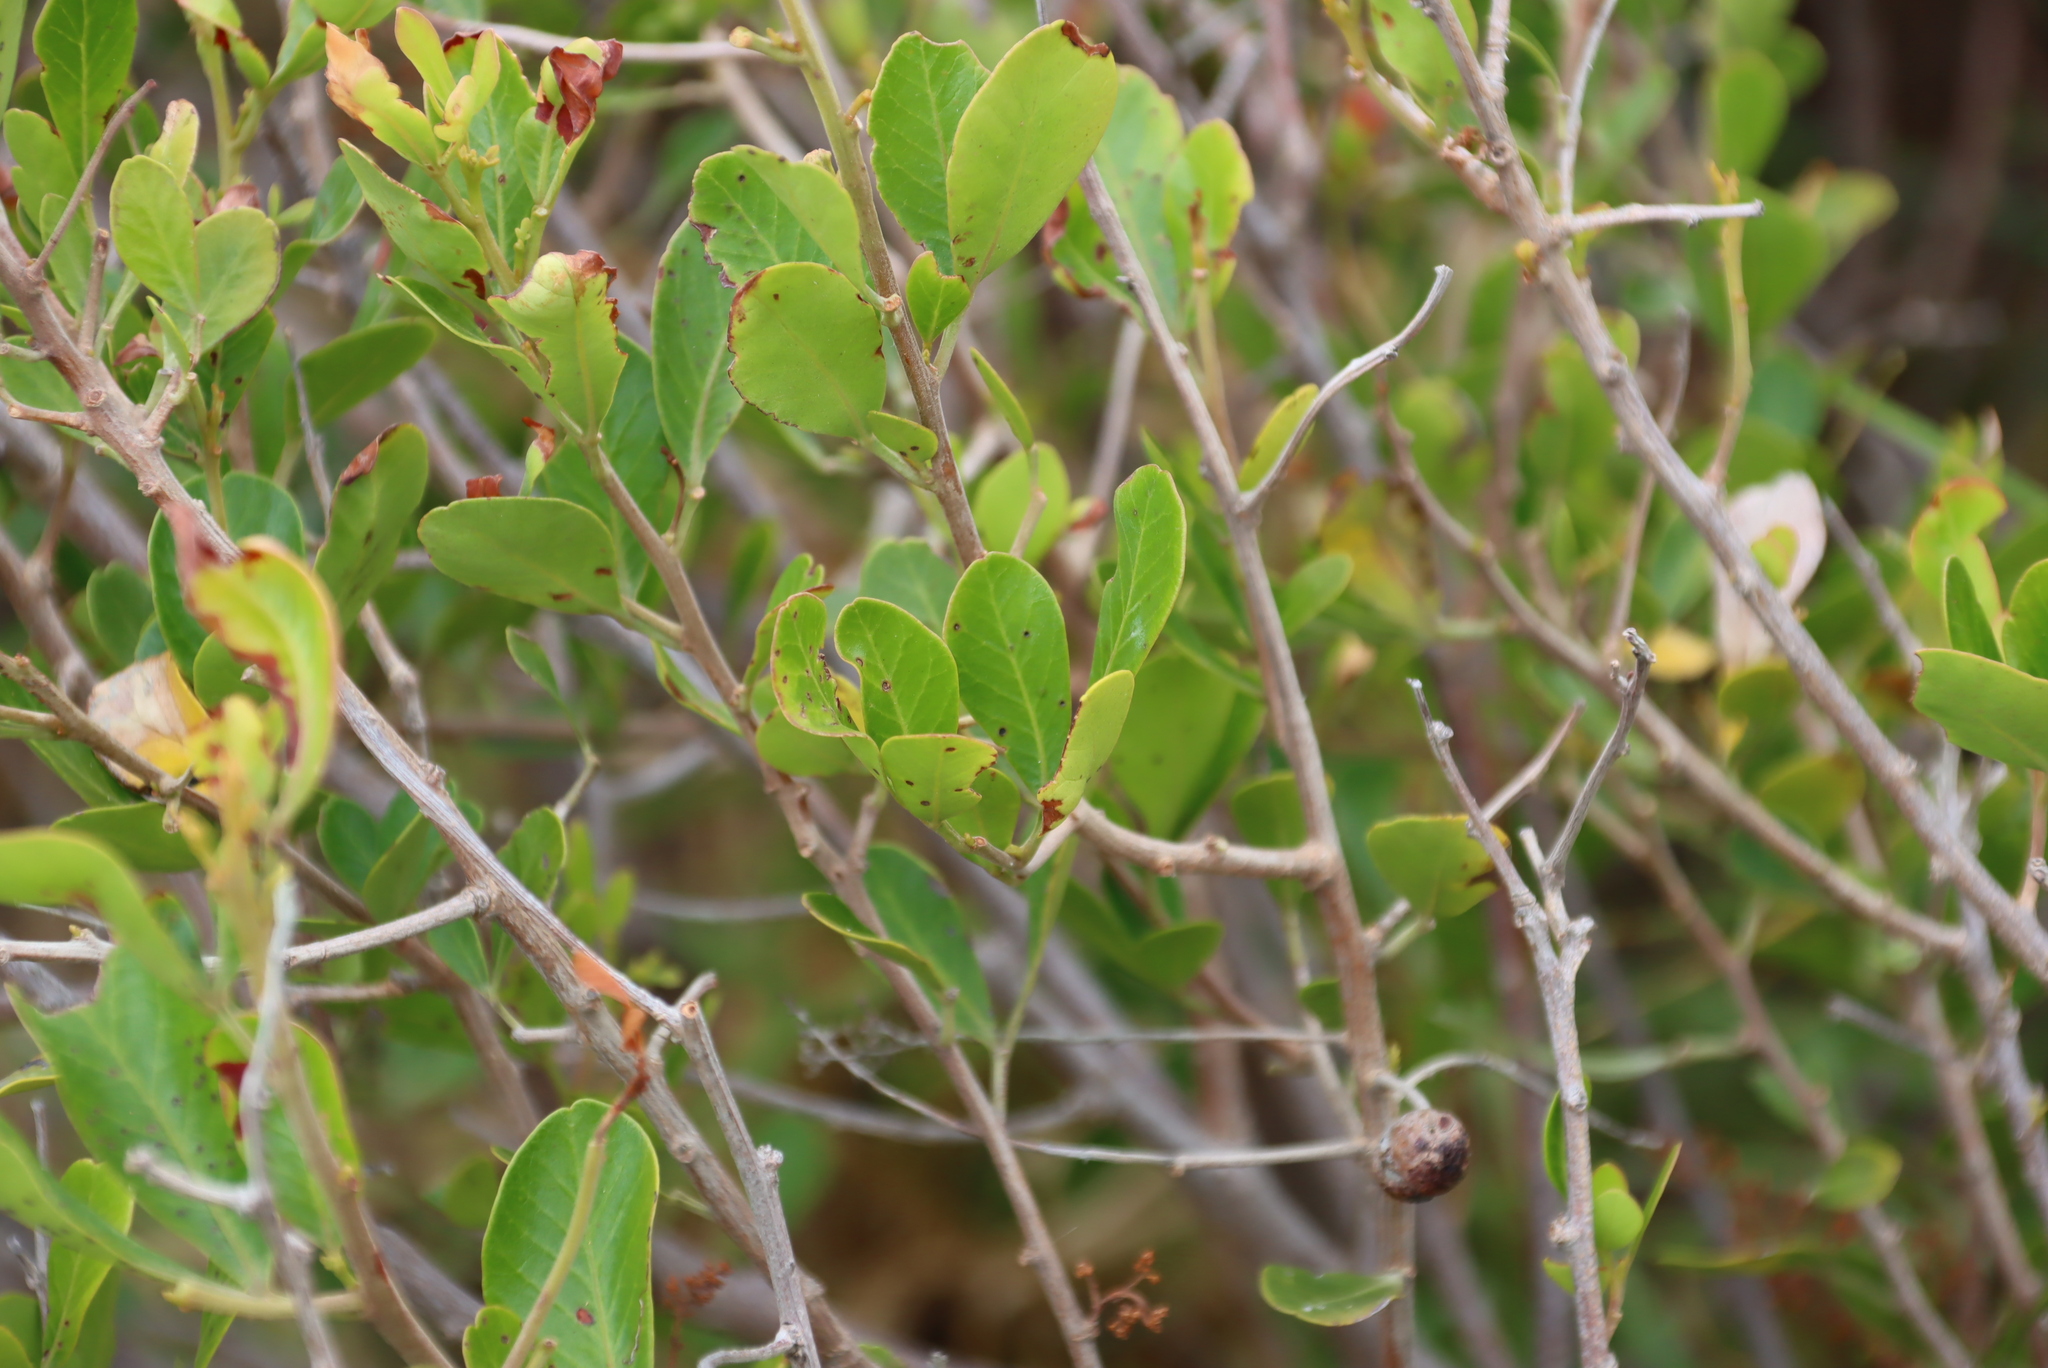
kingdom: Plantae
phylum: Tracheophyta
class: Magnoliopsida
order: Sapindales
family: Anacardiaceae
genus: Searsia
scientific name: Searsia lucida
